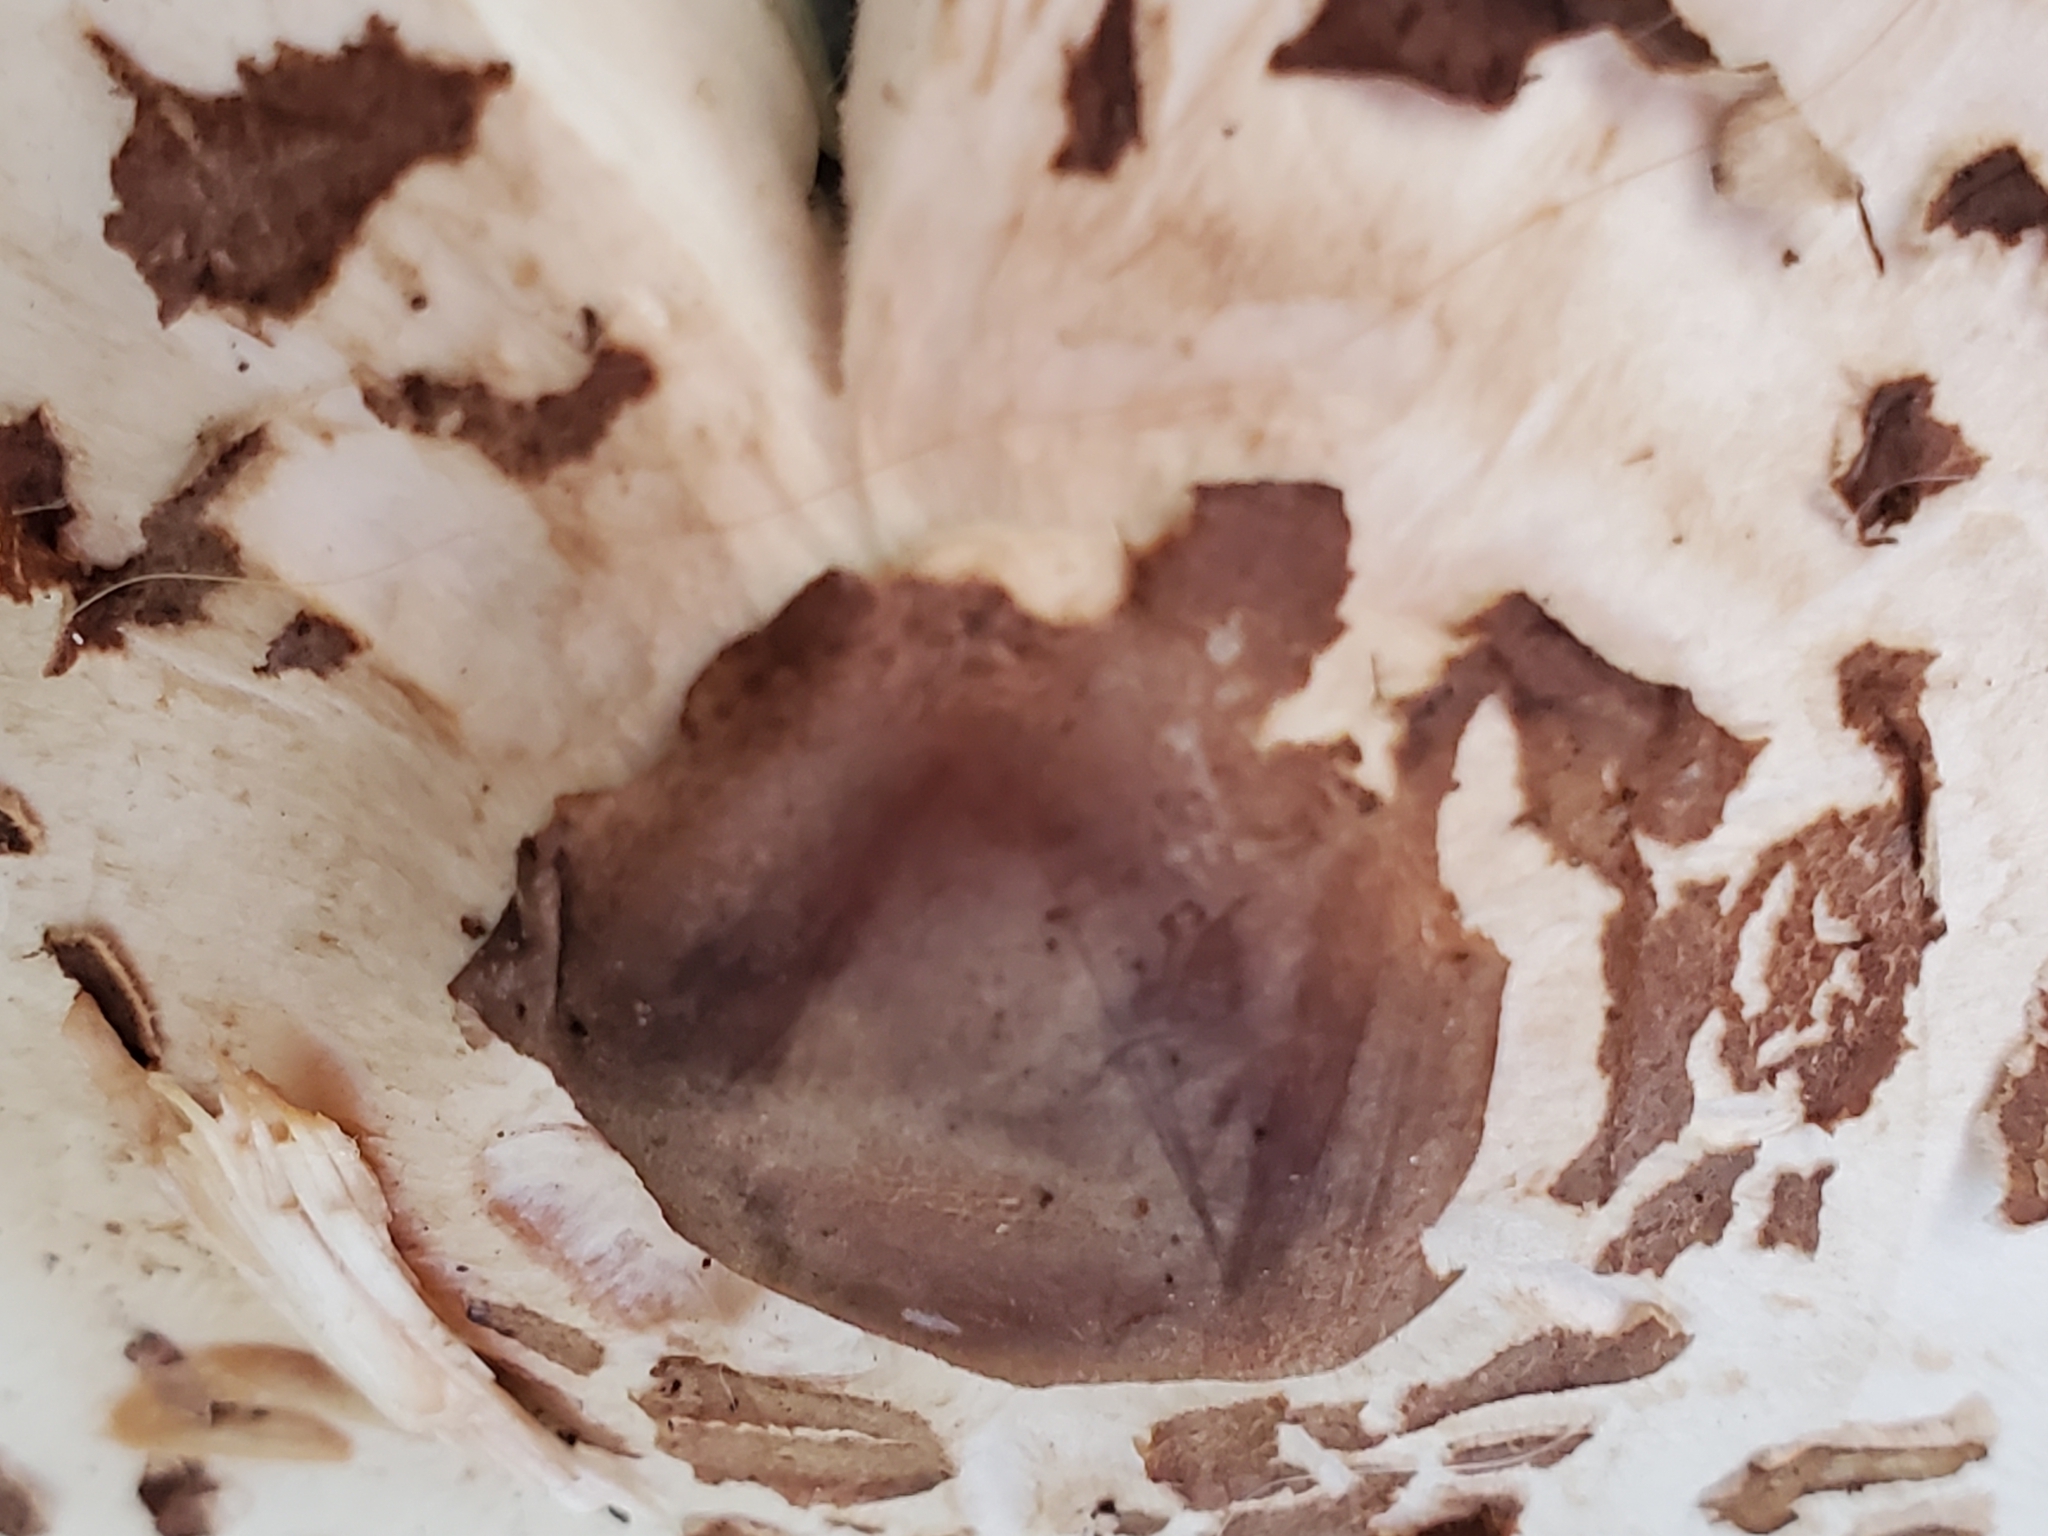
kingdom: Fungi
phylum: Basidiomycota
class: Agaricomycetes
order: Agaricales
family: Agaricaceae
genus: Chlorophyllum
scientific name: Chlorophyllum molybdites
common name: False parasol
